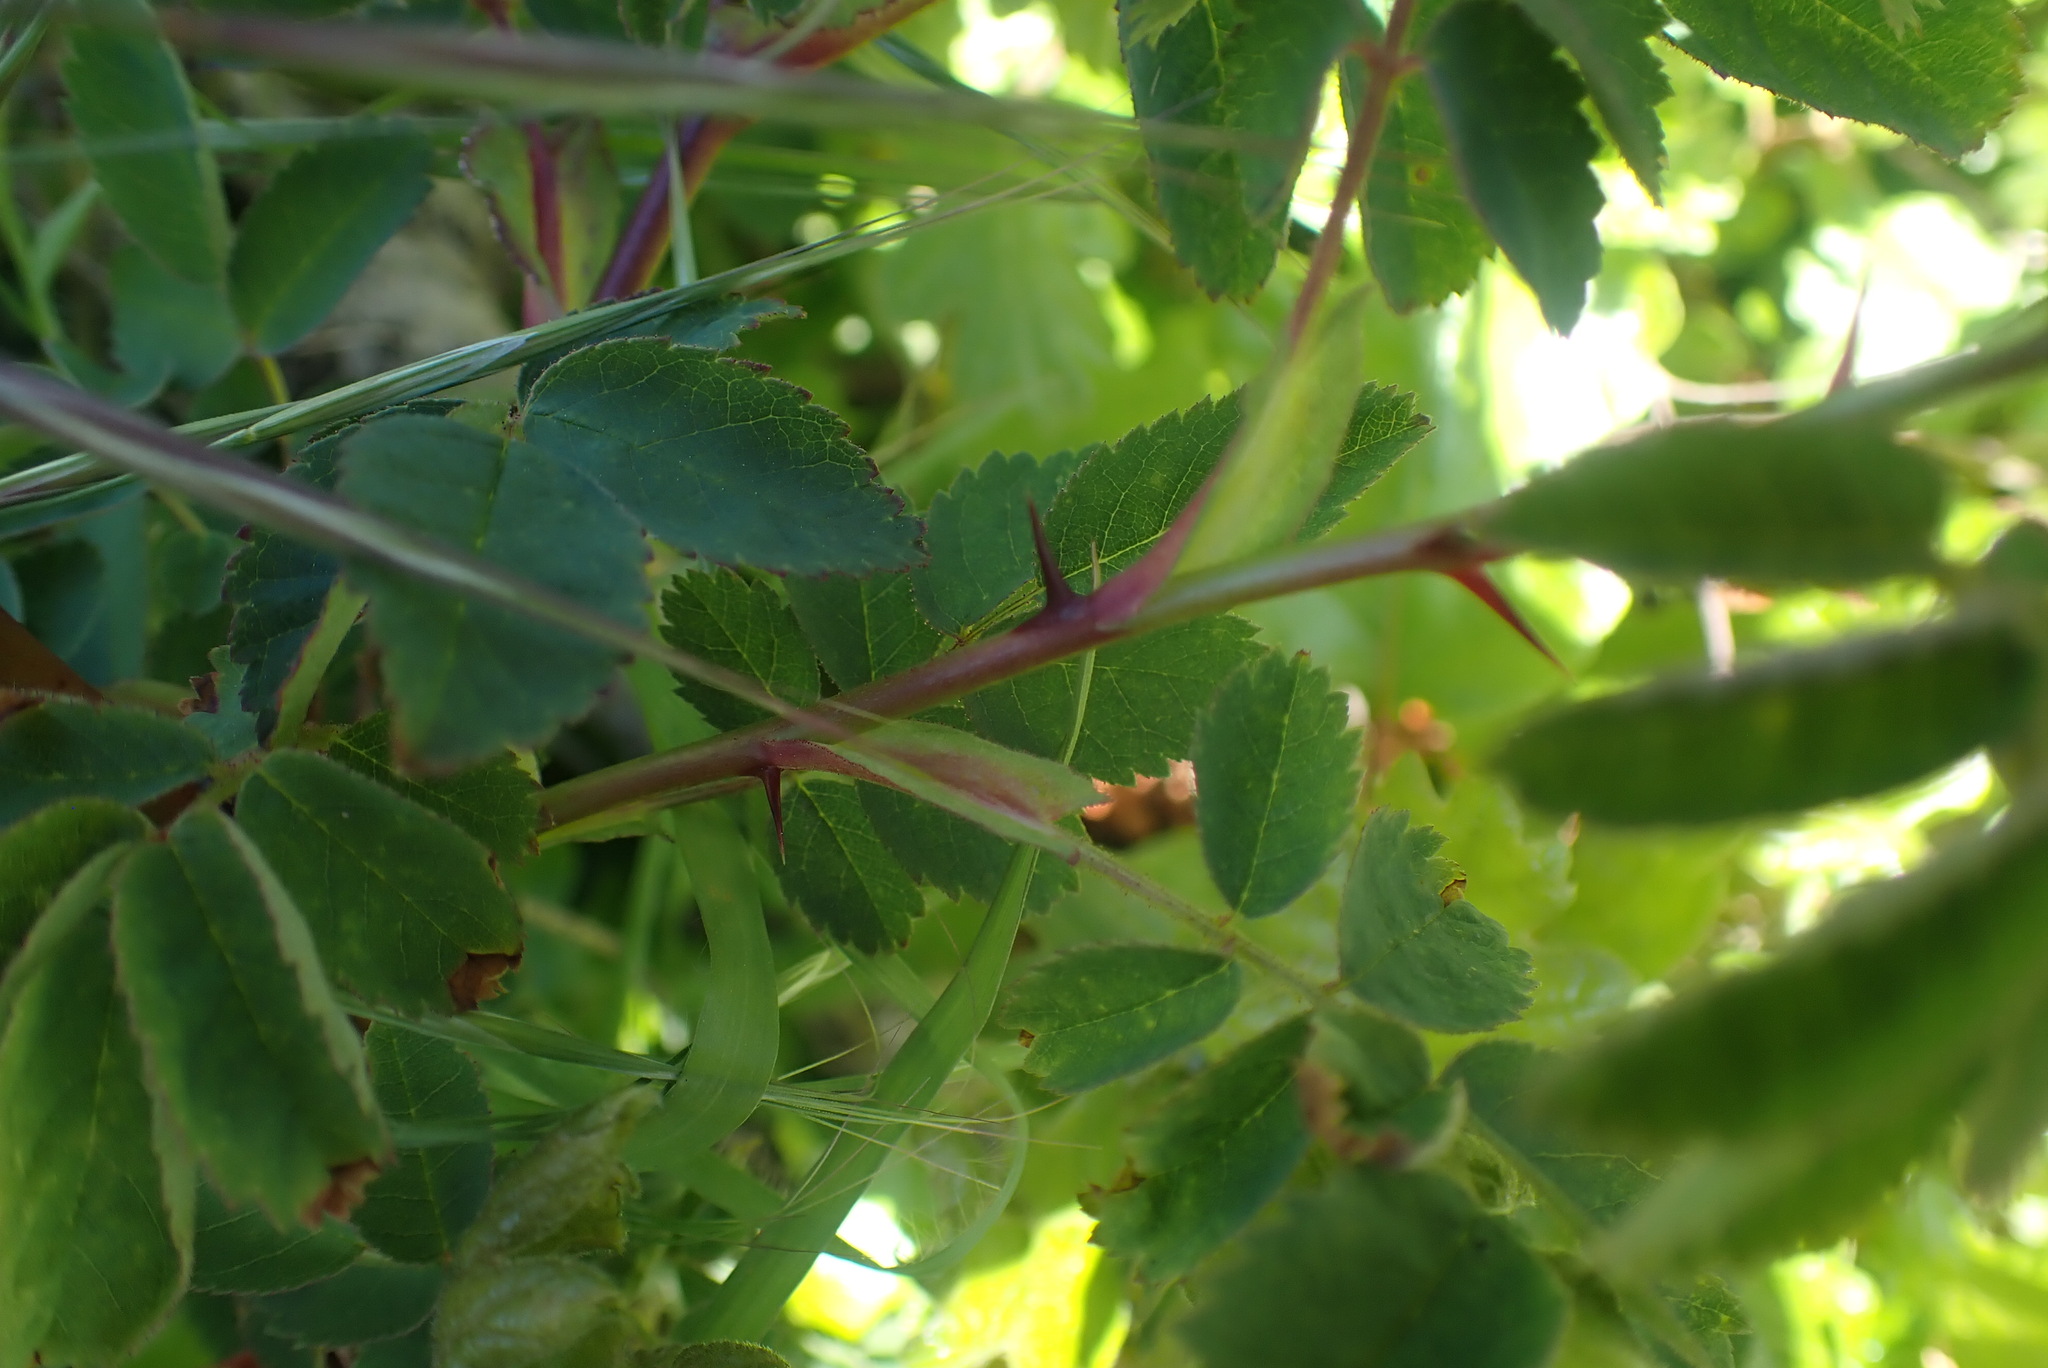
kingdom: Plantae
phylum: Tracheophyta
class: Magnoliopsida
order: Rosales
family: Rosaceae
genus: Rosa
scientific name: Rosa nutkana
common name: Nootka rose
